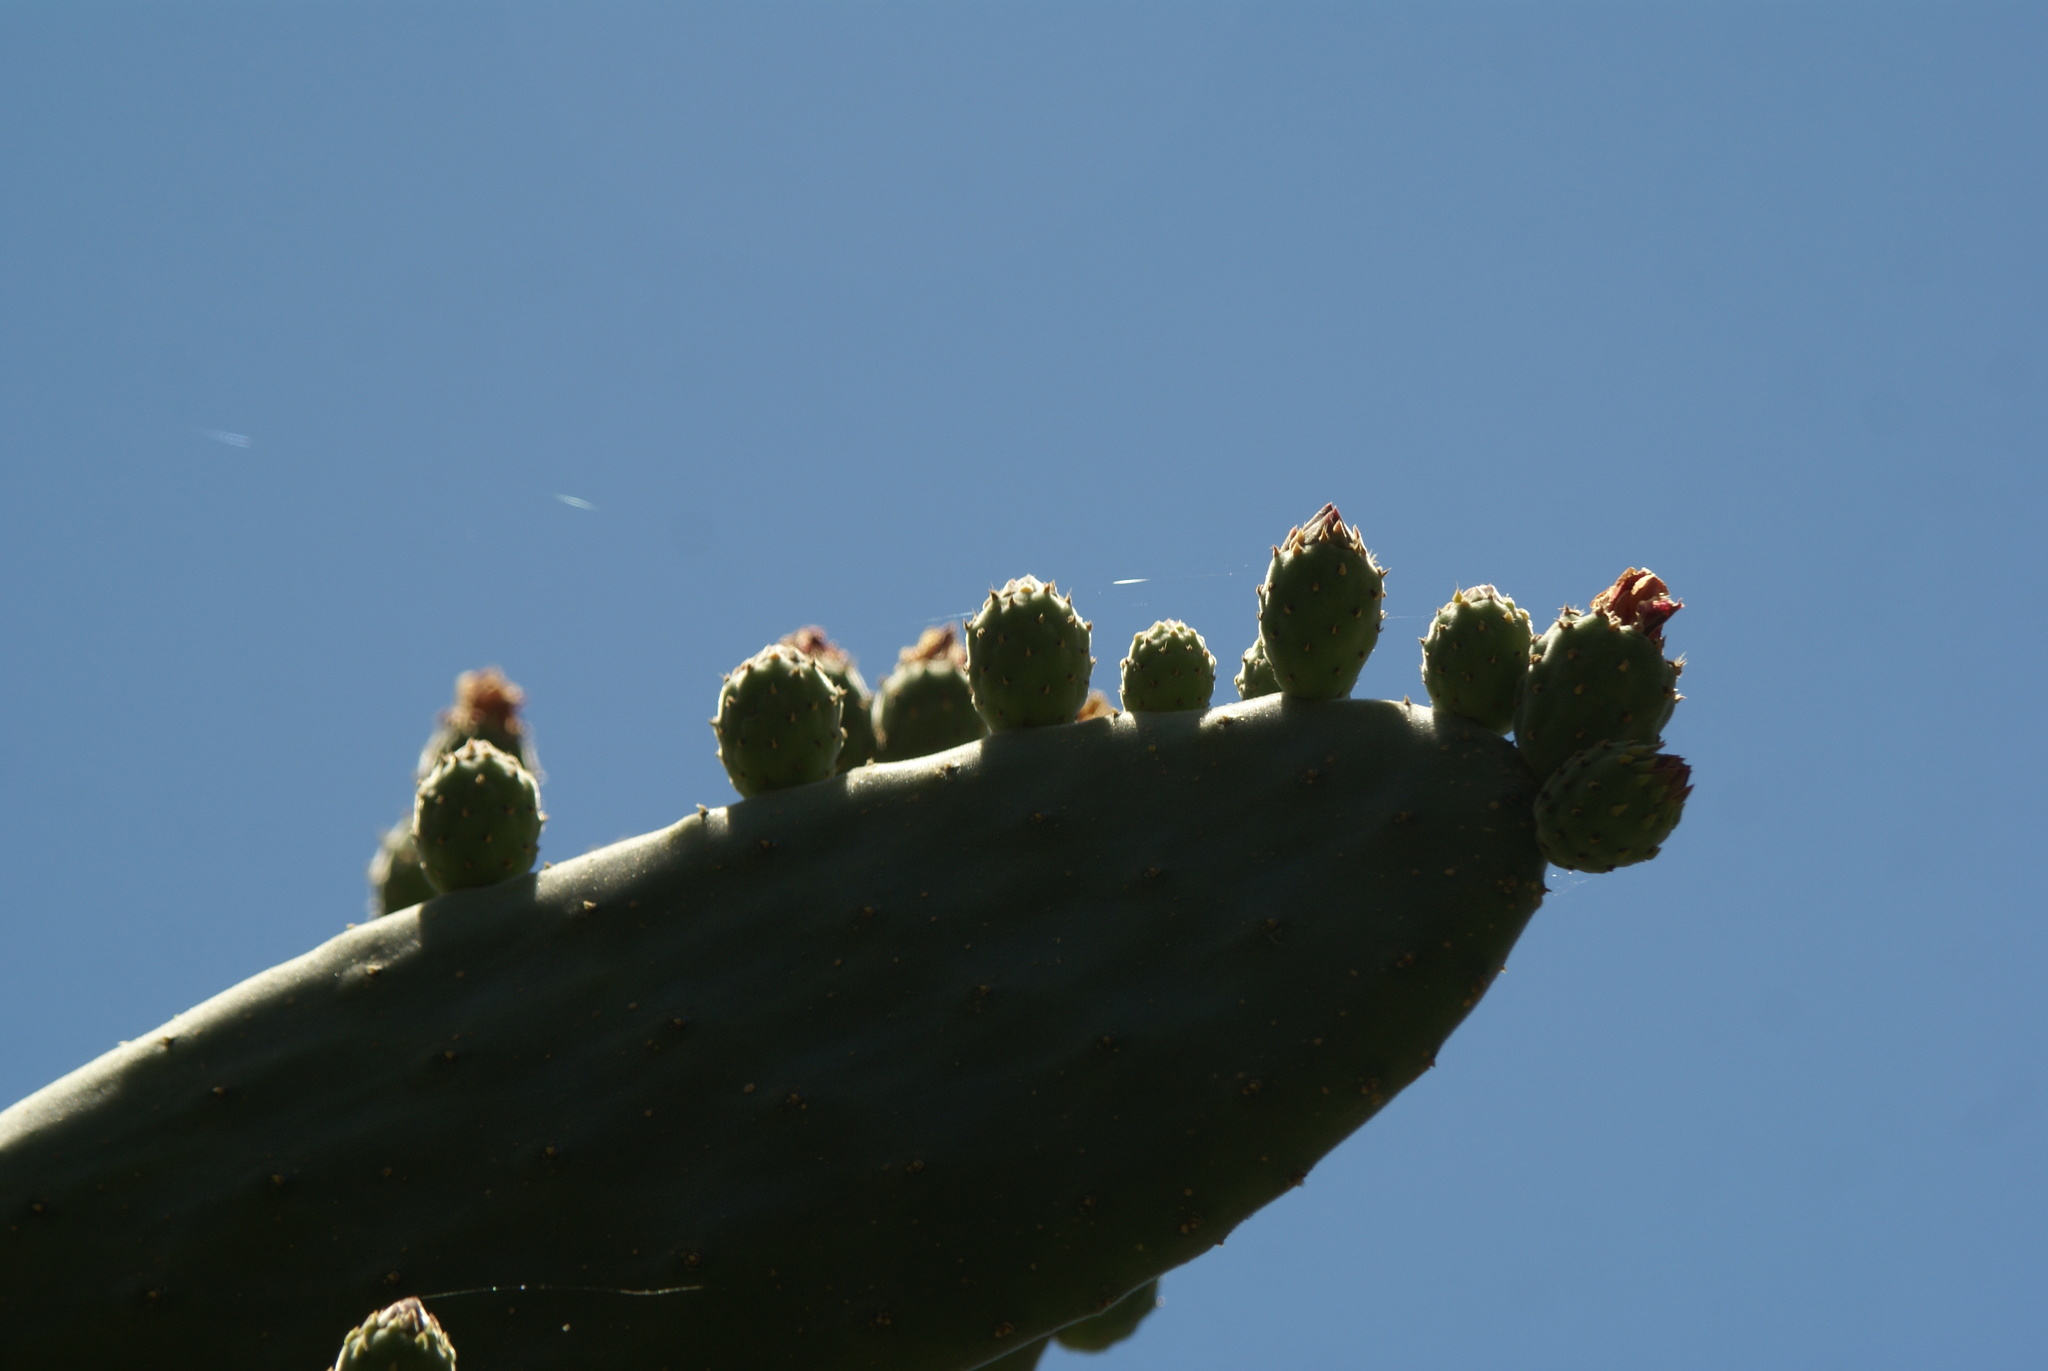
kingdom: Plantae
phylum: Tracheophyta
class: Magnoliopsida
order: Caryophyllales
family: Cactaceae
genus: Opuntia
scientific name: Opuntia tomentosa
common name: Woollyjoint pricklypear
